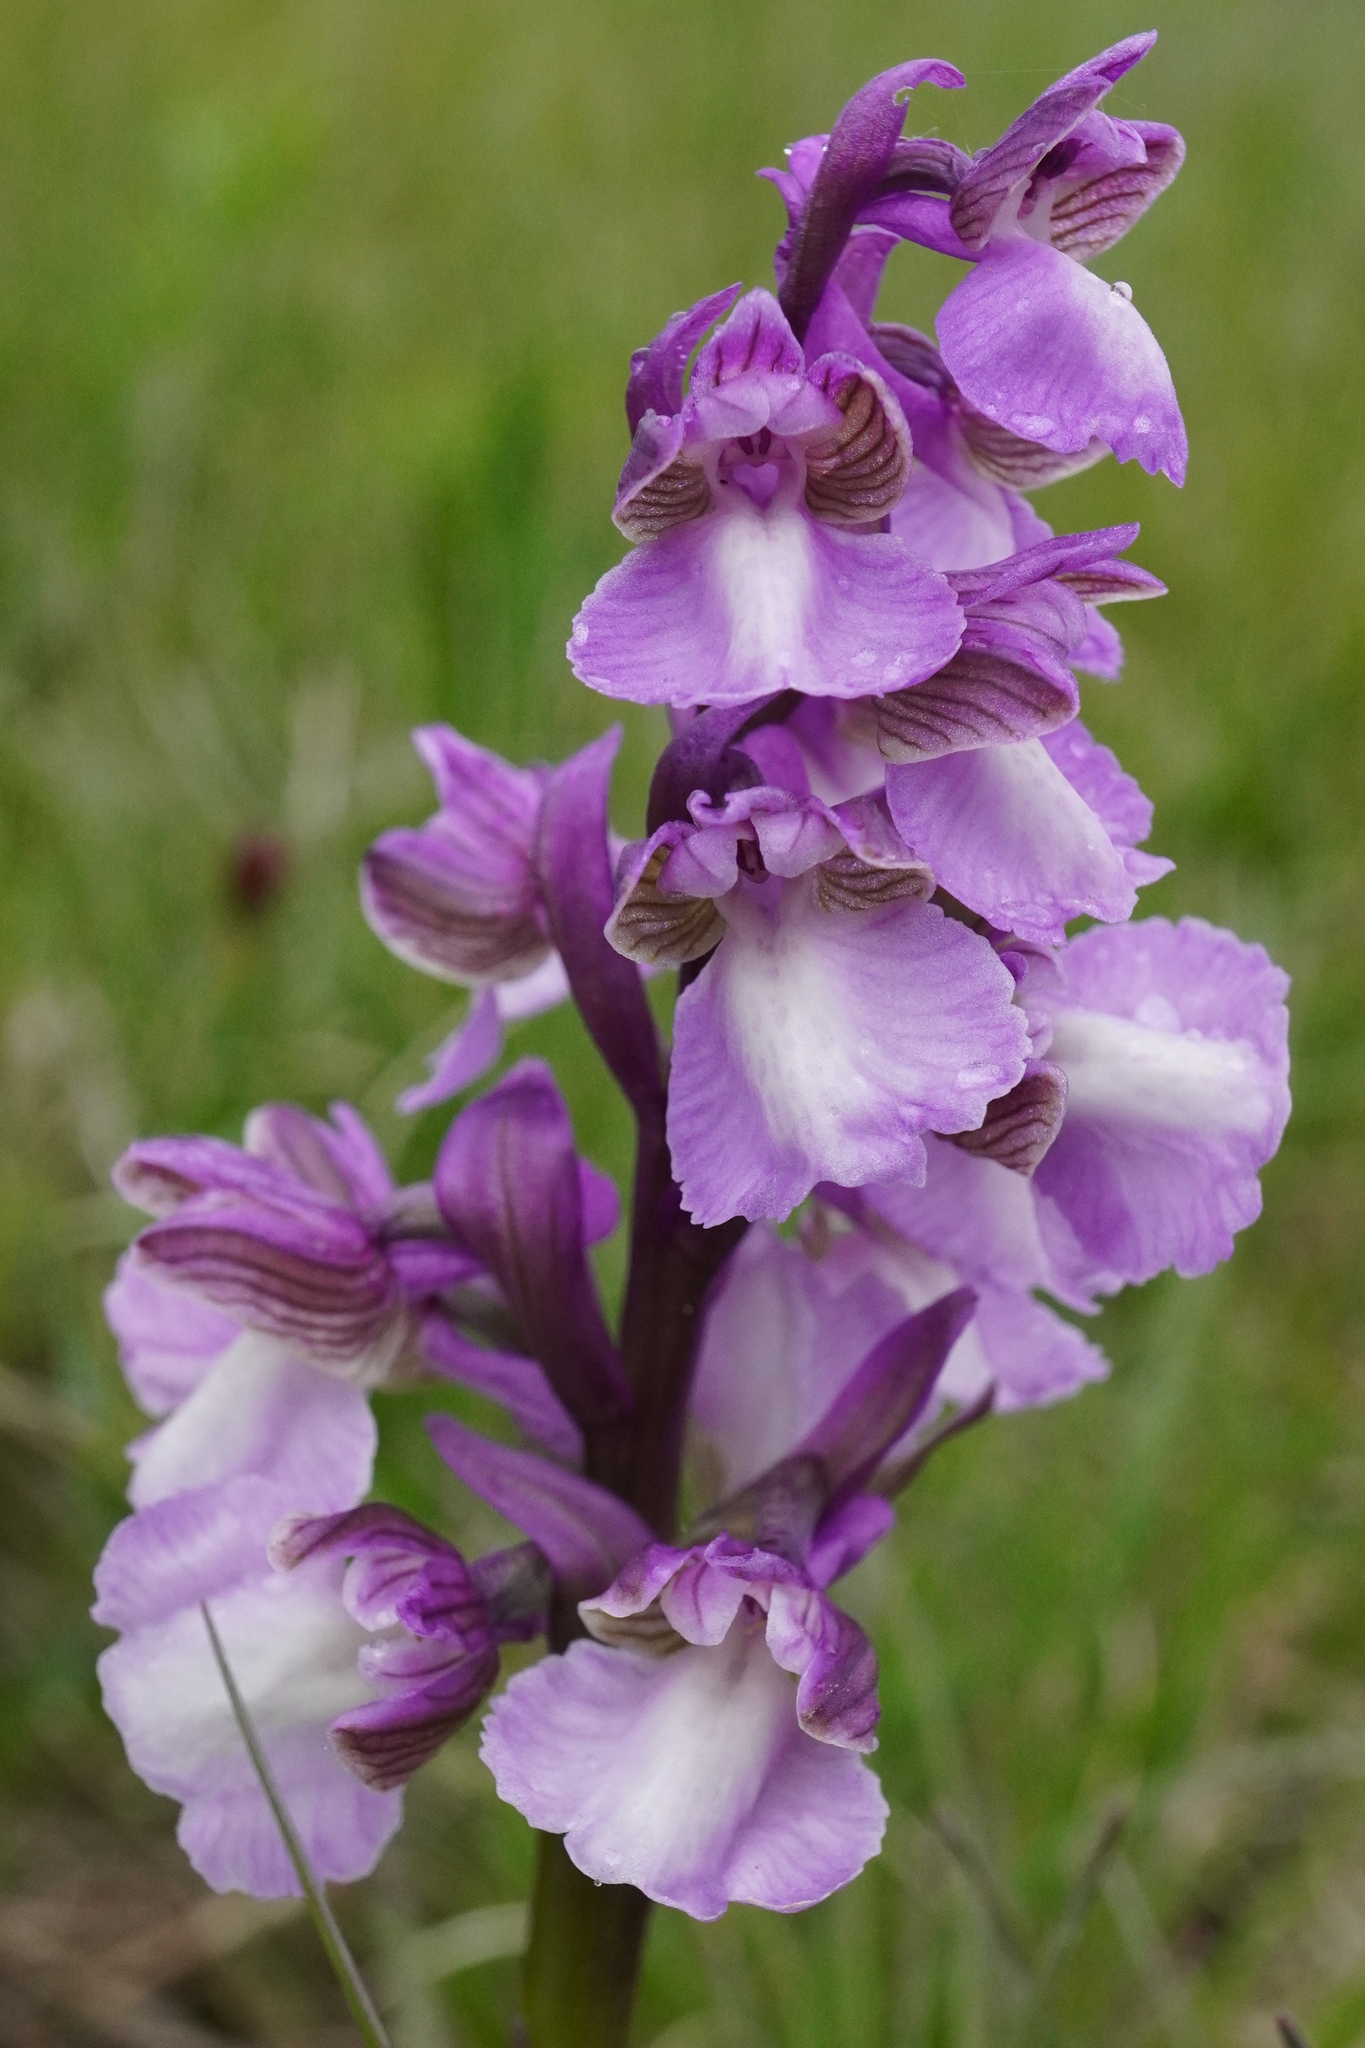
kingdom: Plantae
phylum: Tracheophyta
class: Liliopsida
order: Asparagales
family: Orchidaceae
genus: Anacamptis
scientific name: Anacamptis morio
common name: Green-winged orchid
